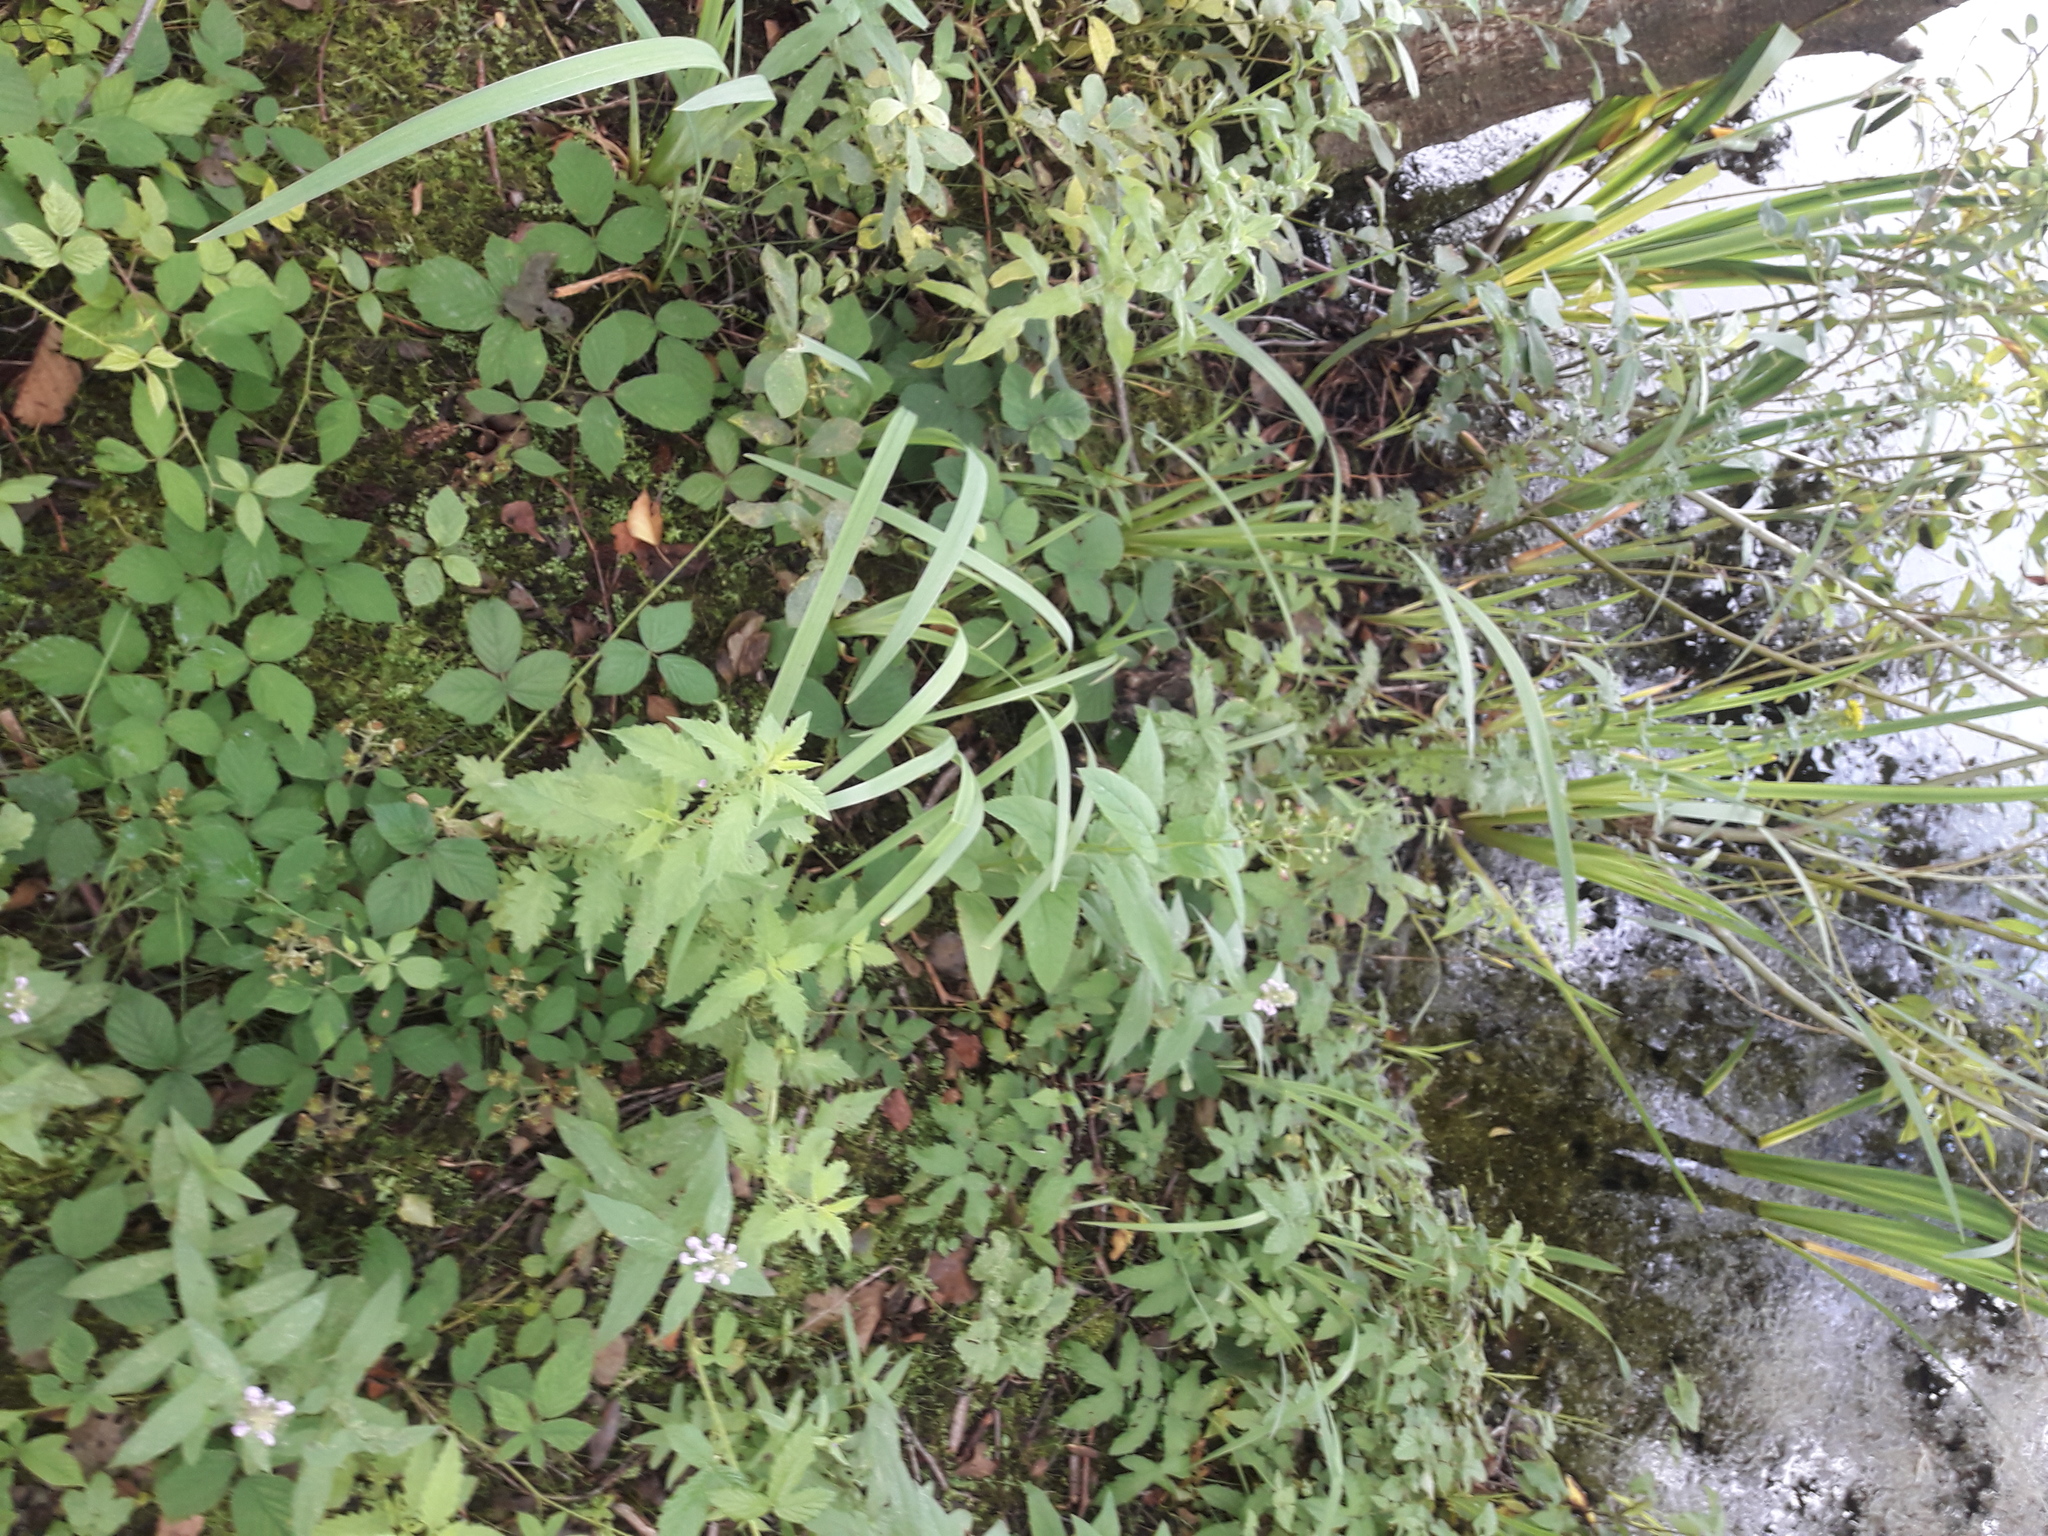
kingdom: Plantae
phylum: Tracheophyta
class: Liliopsida
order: Asparagales
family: Iridaceae
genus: Iris
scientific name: Iris pseudacorus
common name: Yellow flag
